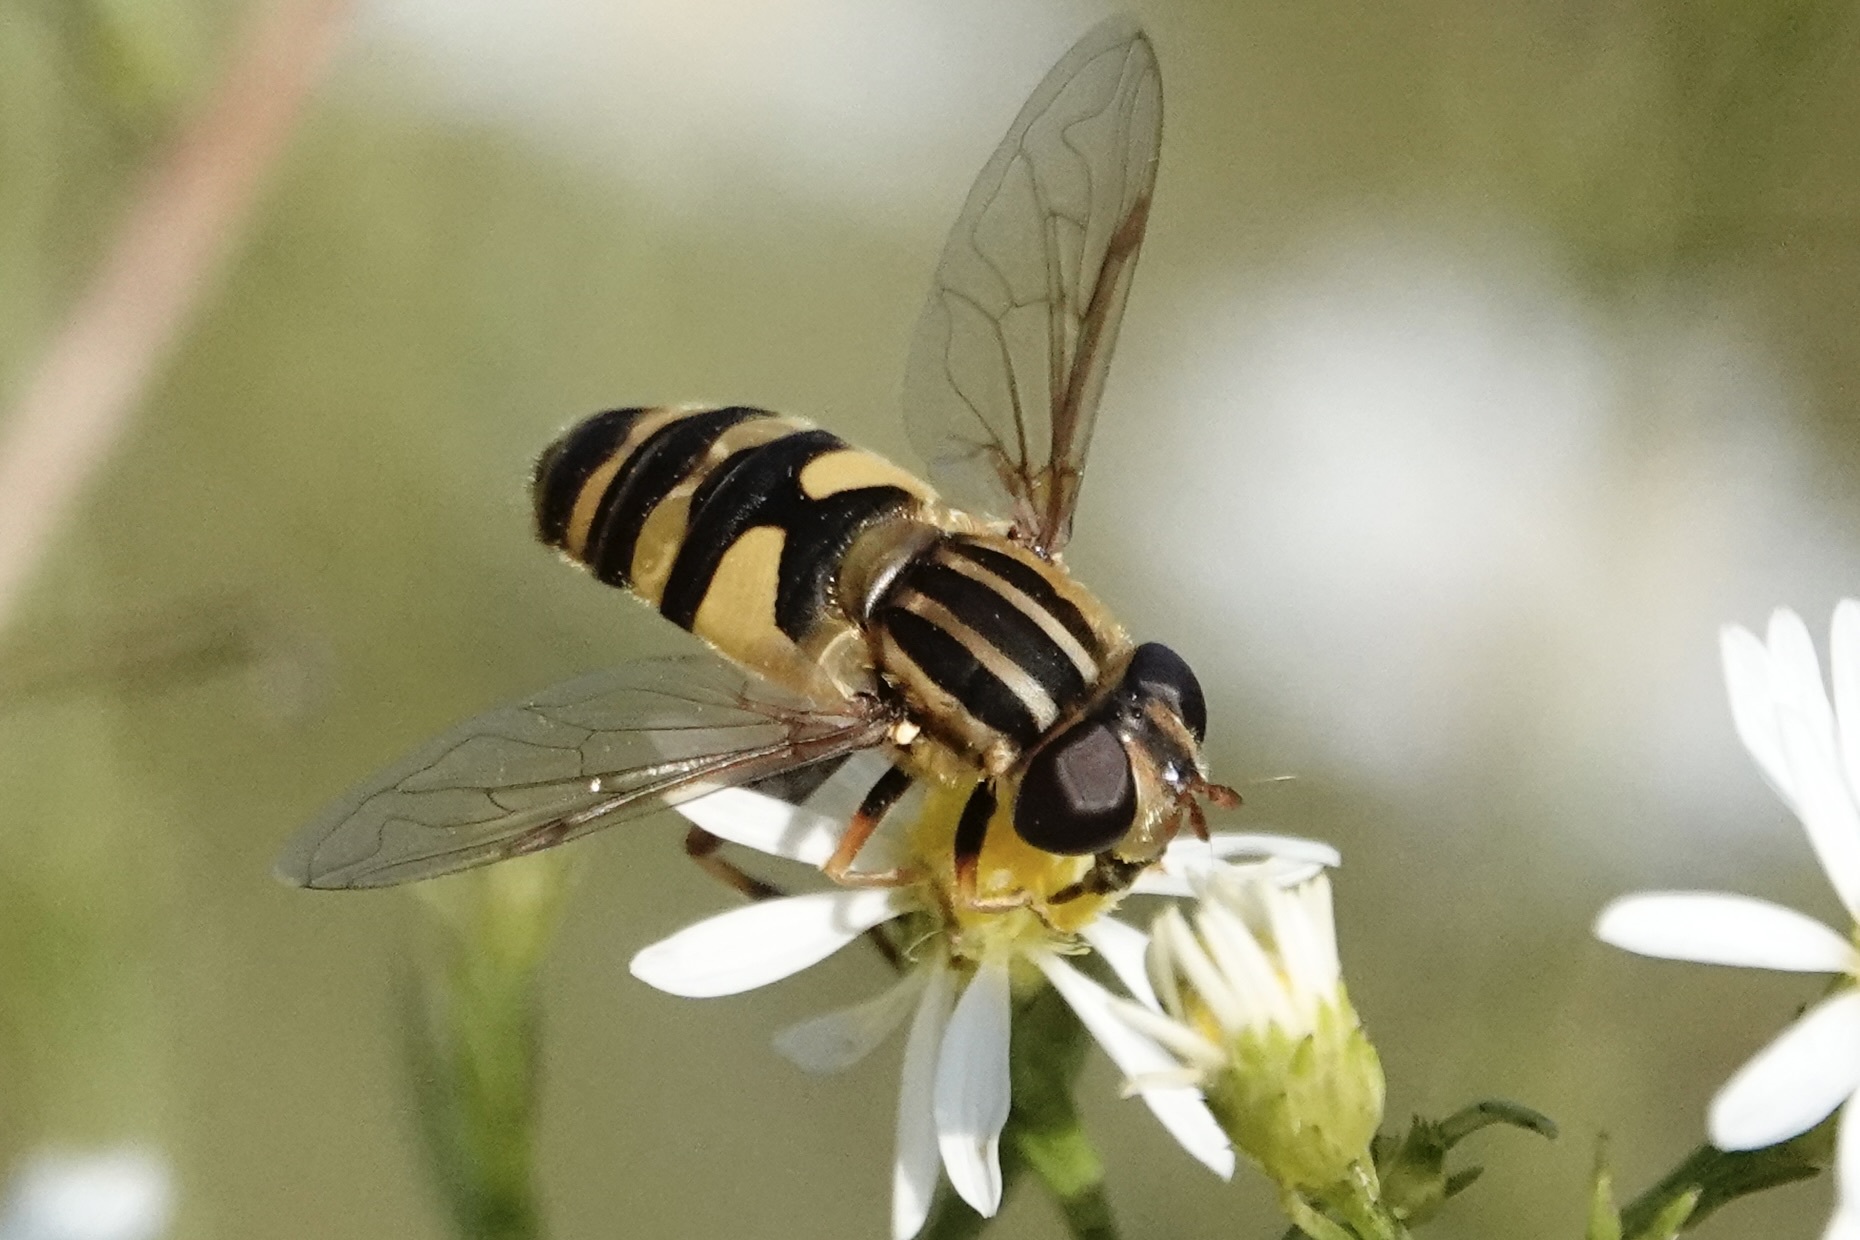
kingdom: Animalia
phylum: Arthropoda
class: Insecta
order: Diptera
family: Syrphidae
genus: Helophilus
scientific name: Helophilus fasciatus
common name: Narrow-headed marsh fly
